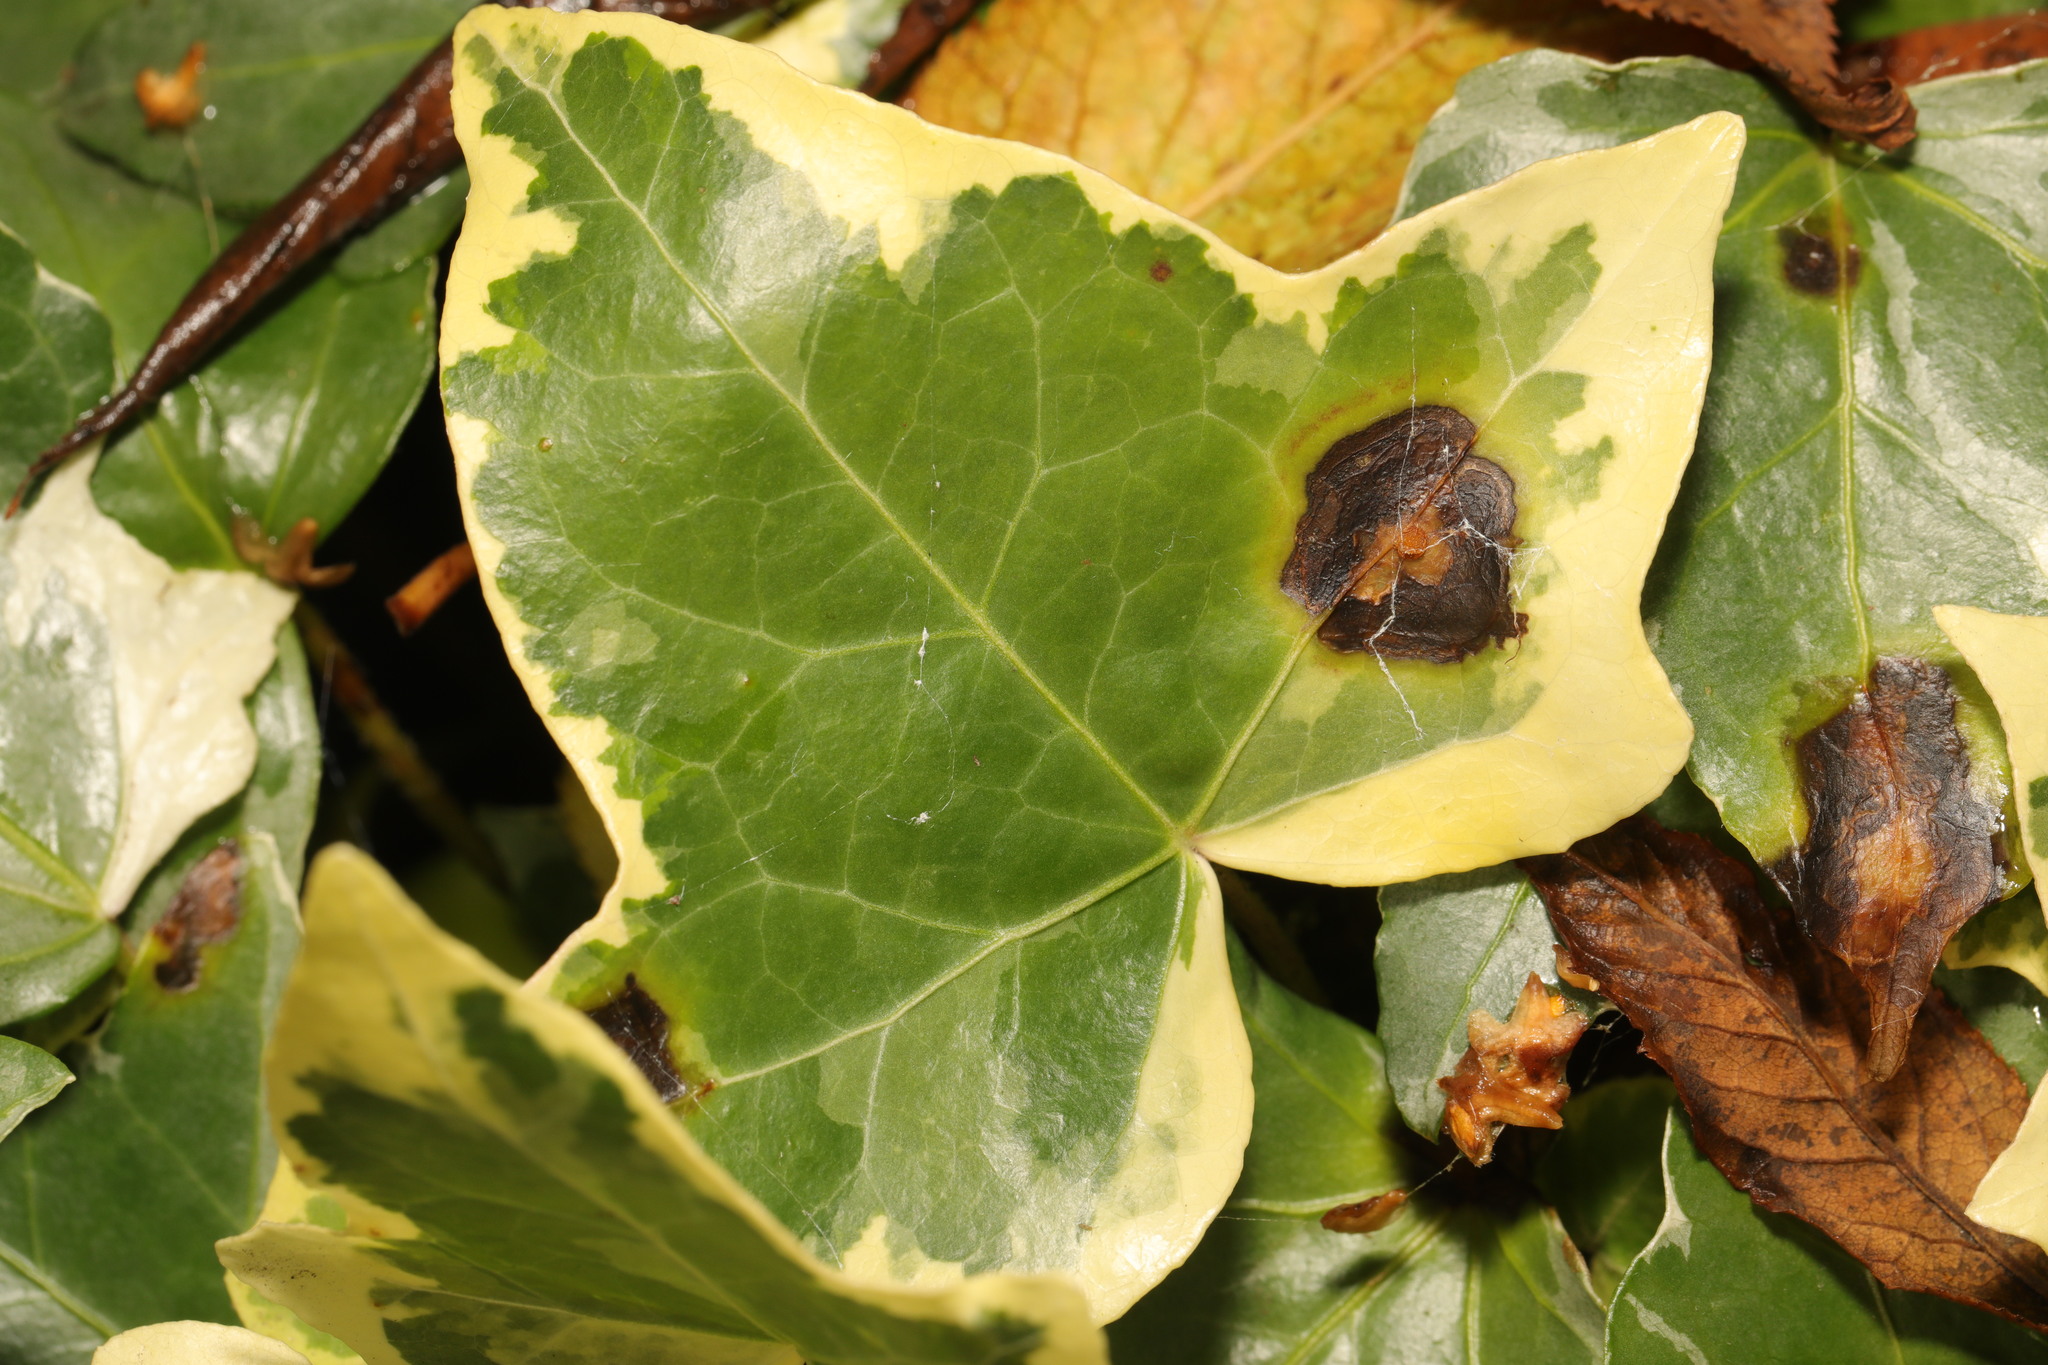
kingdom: Fungi
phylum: Ascomycota
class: Dothideomycetes
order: Pleosporales
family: Didymellaceae
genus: Boeremia
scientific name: Boeremia hedericola
